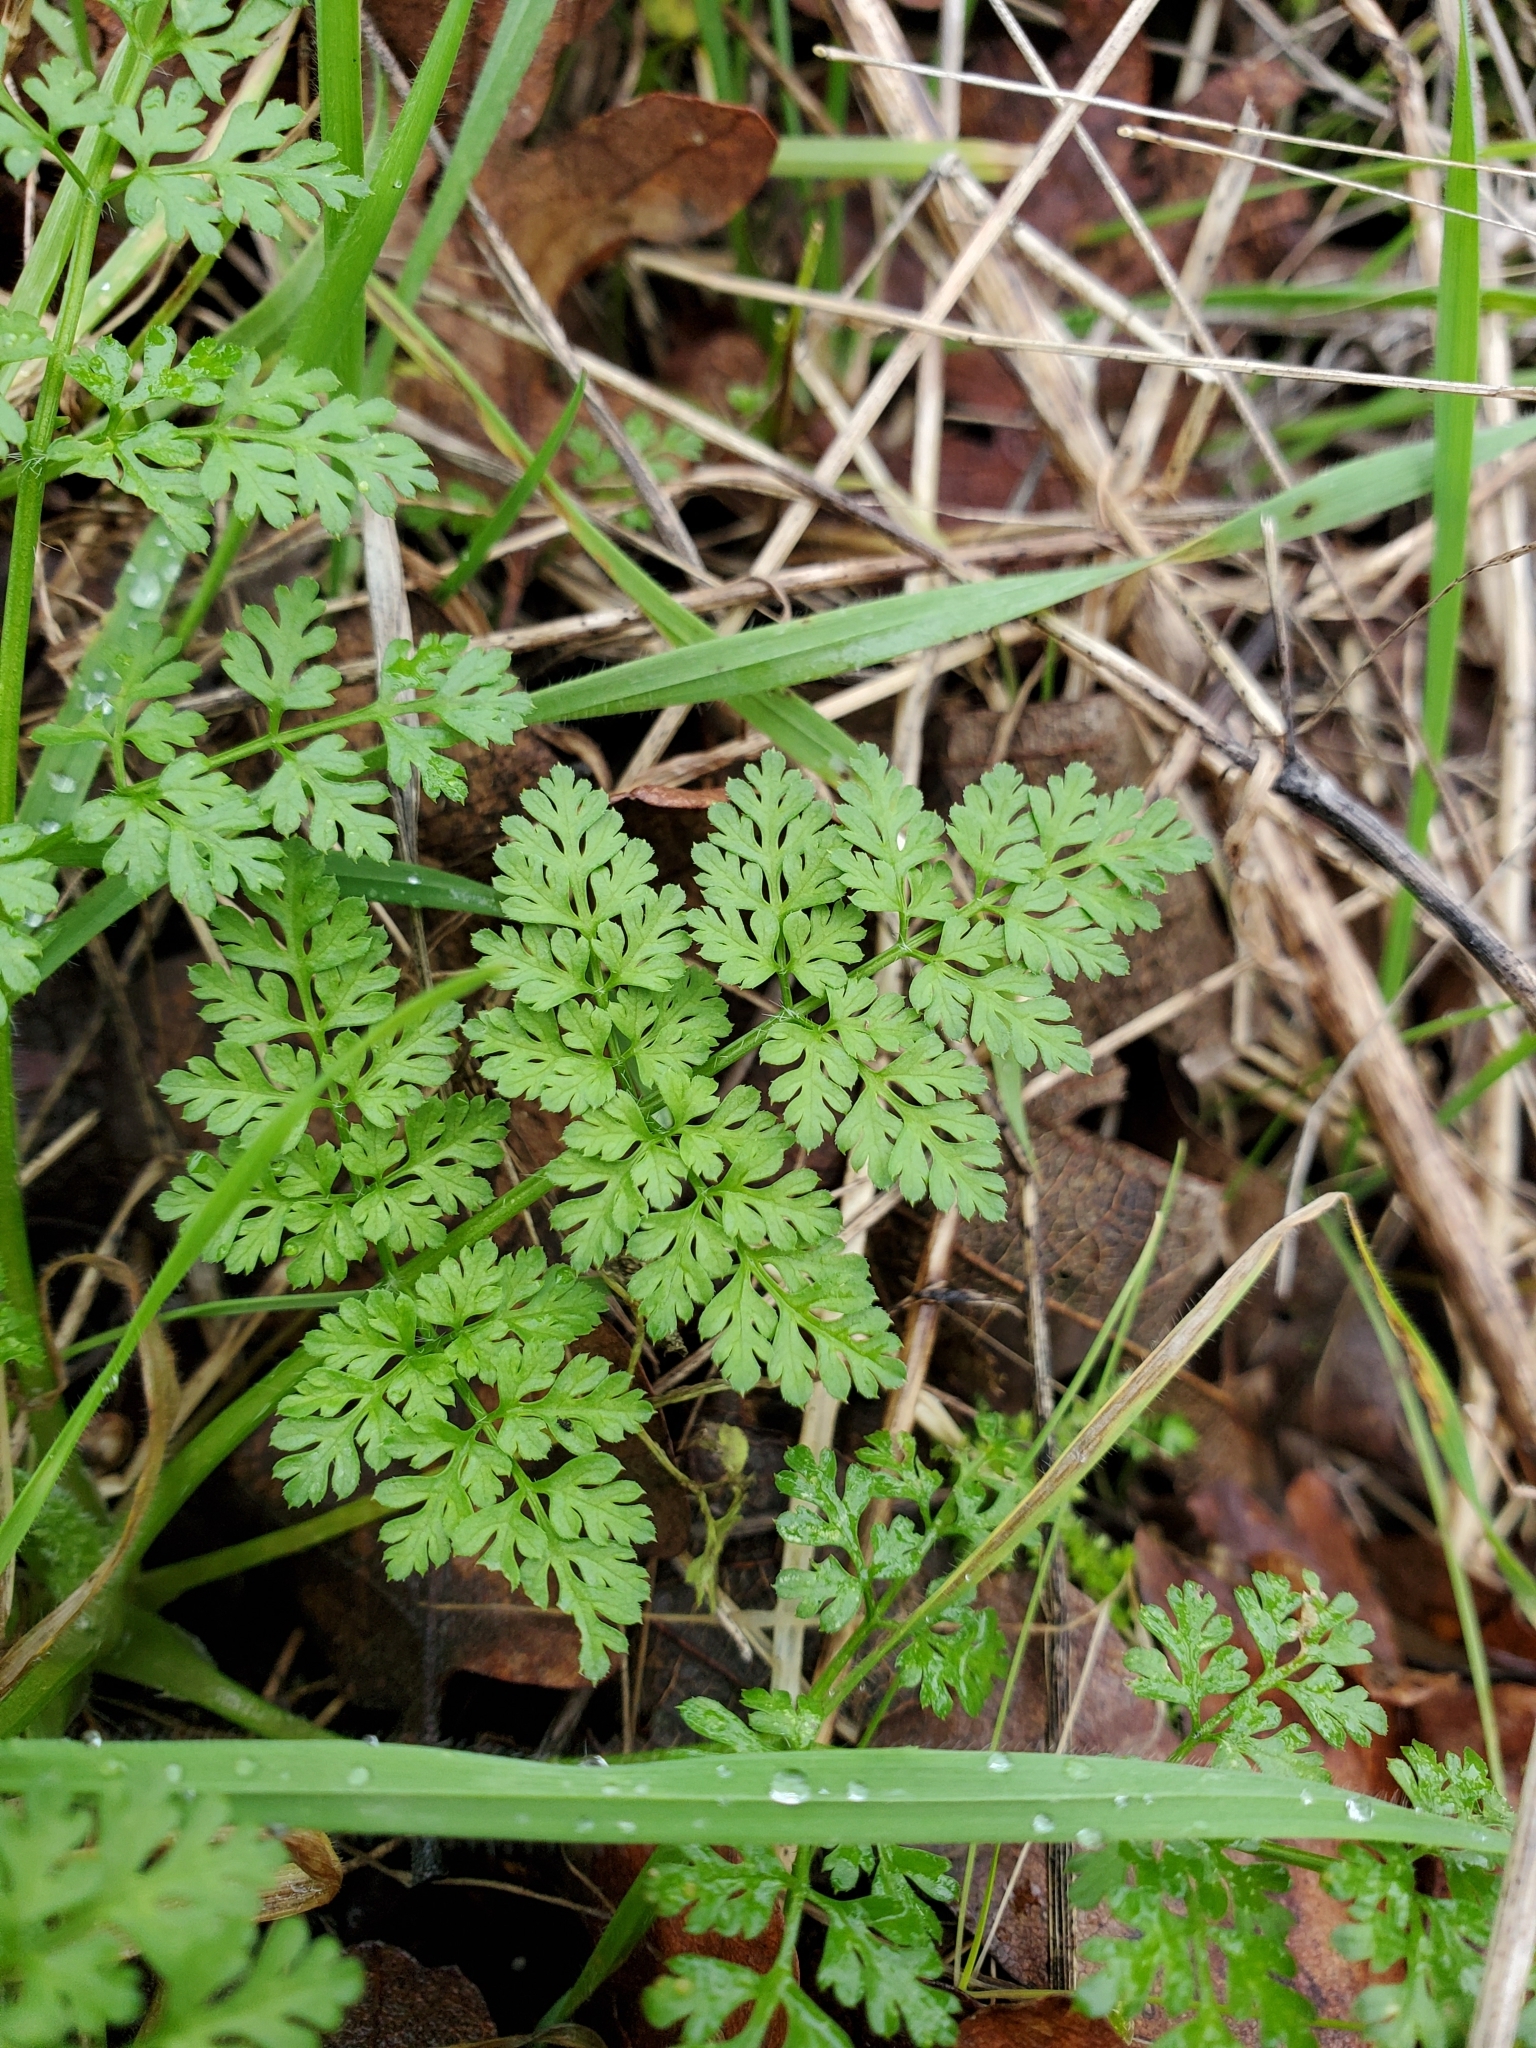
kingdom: Plantae
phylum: Tracheophyta
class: Magnoliopsida
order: Apiales
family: Apiaceae
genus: Anthriscus
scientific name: Anthriscus caucalis
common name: Bur chervil
